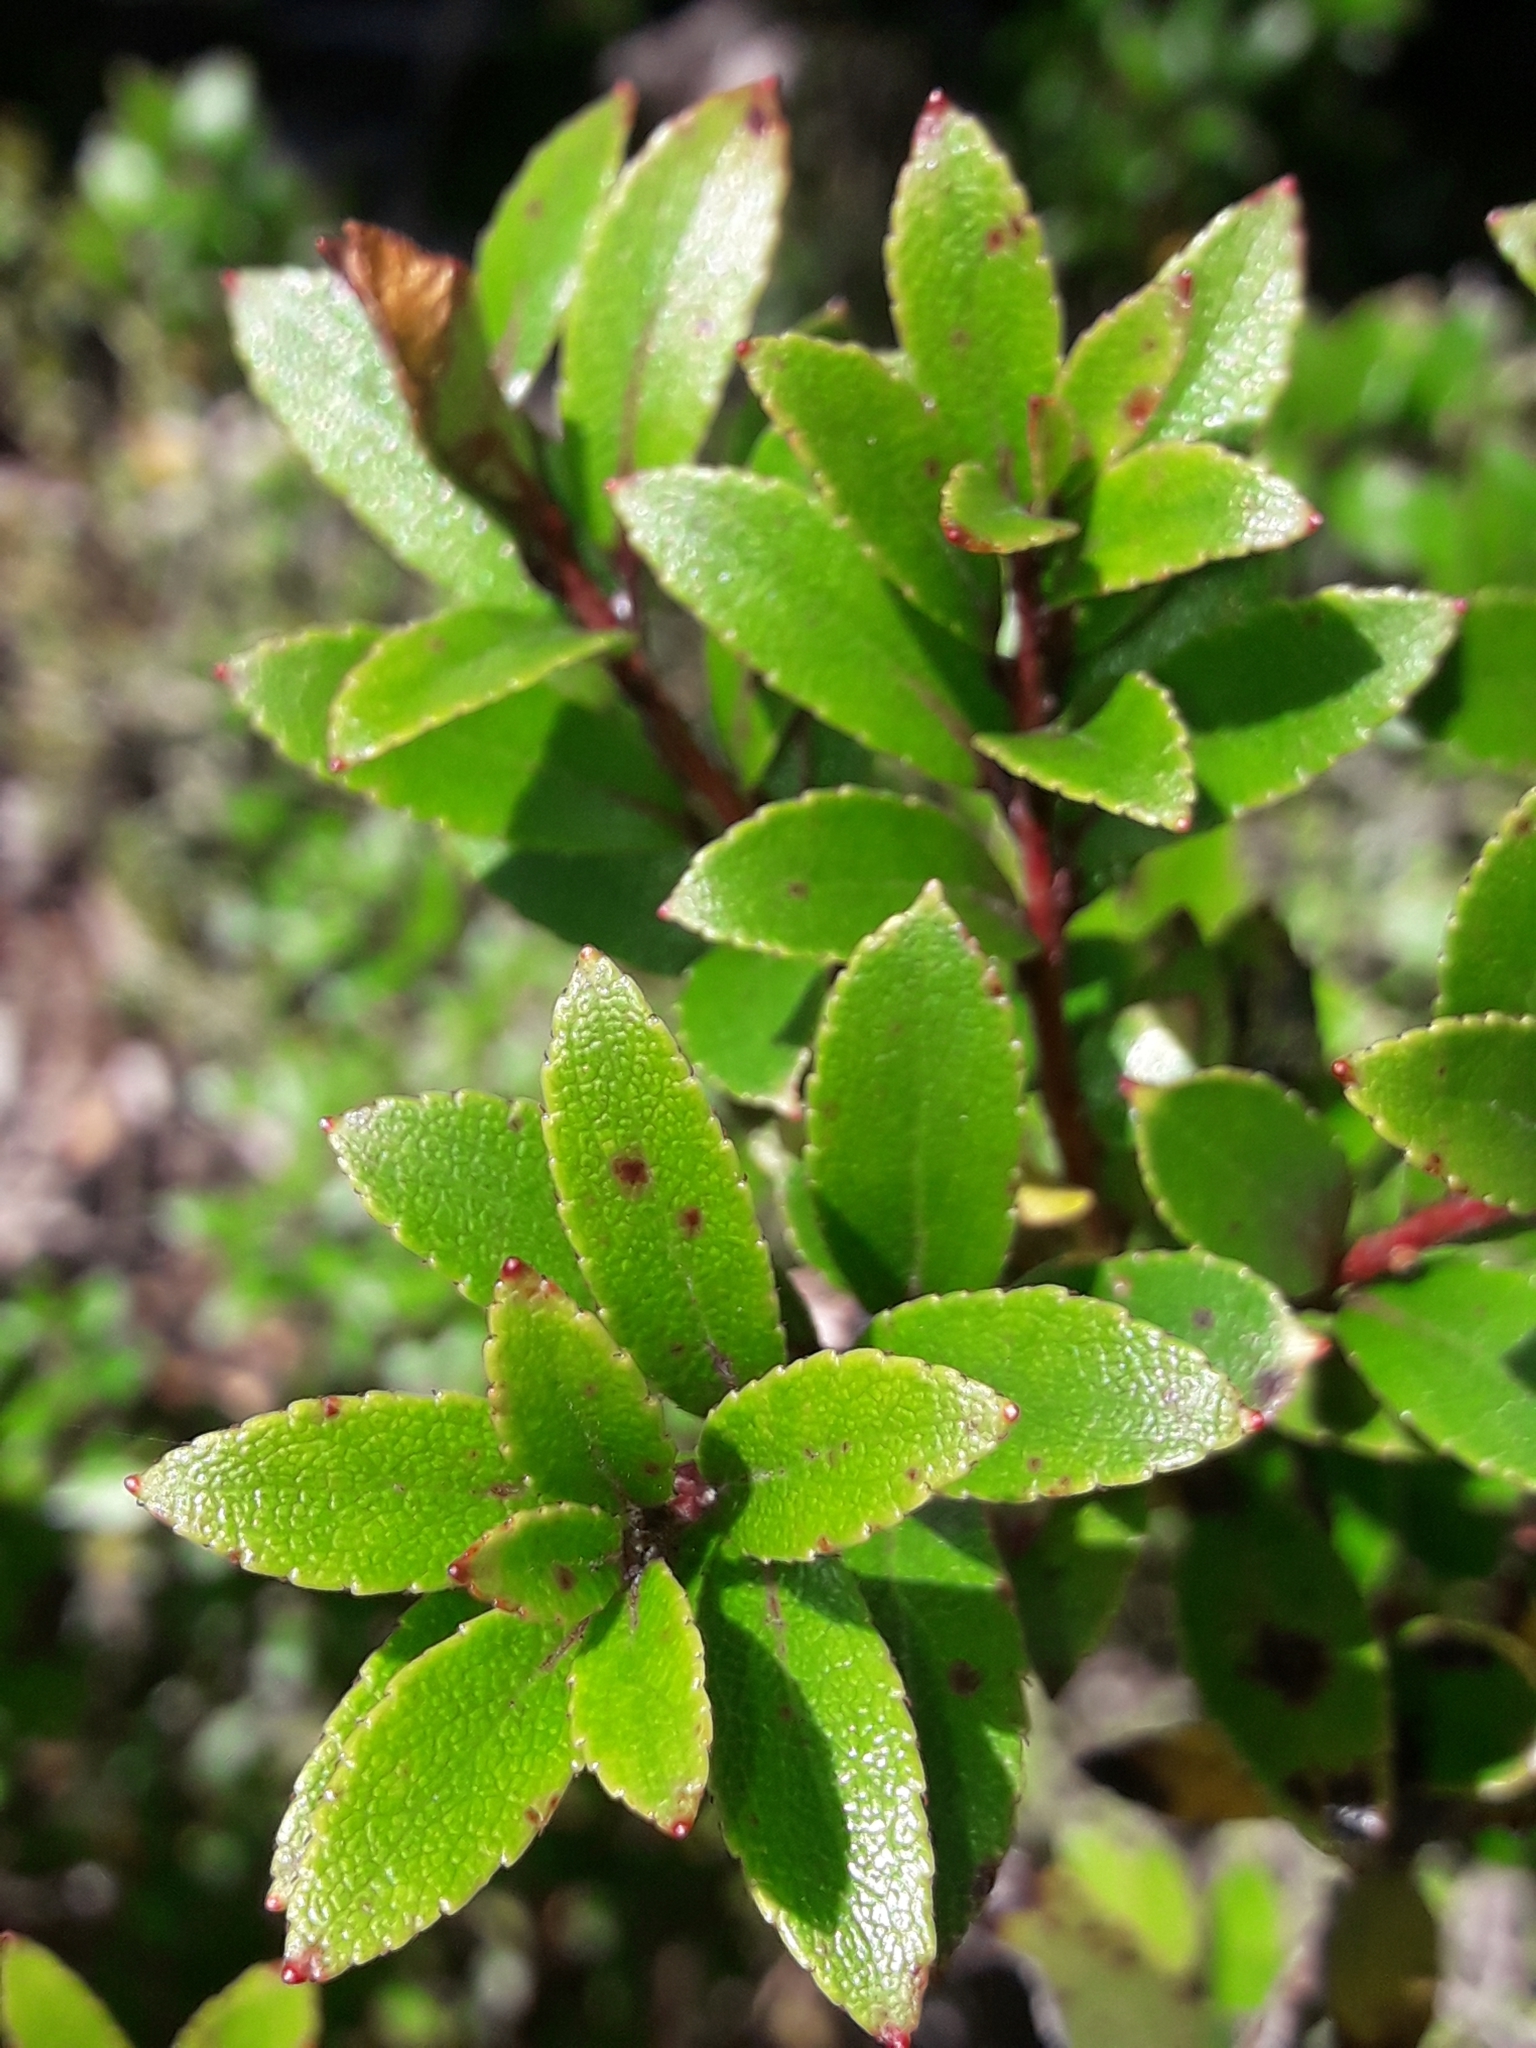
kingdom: Plantae
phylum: Tracheophyta
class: Magnoliopsida
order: Ericales
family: Ericaceae
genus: Gaultheria
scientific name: Gaultheria rupestris
